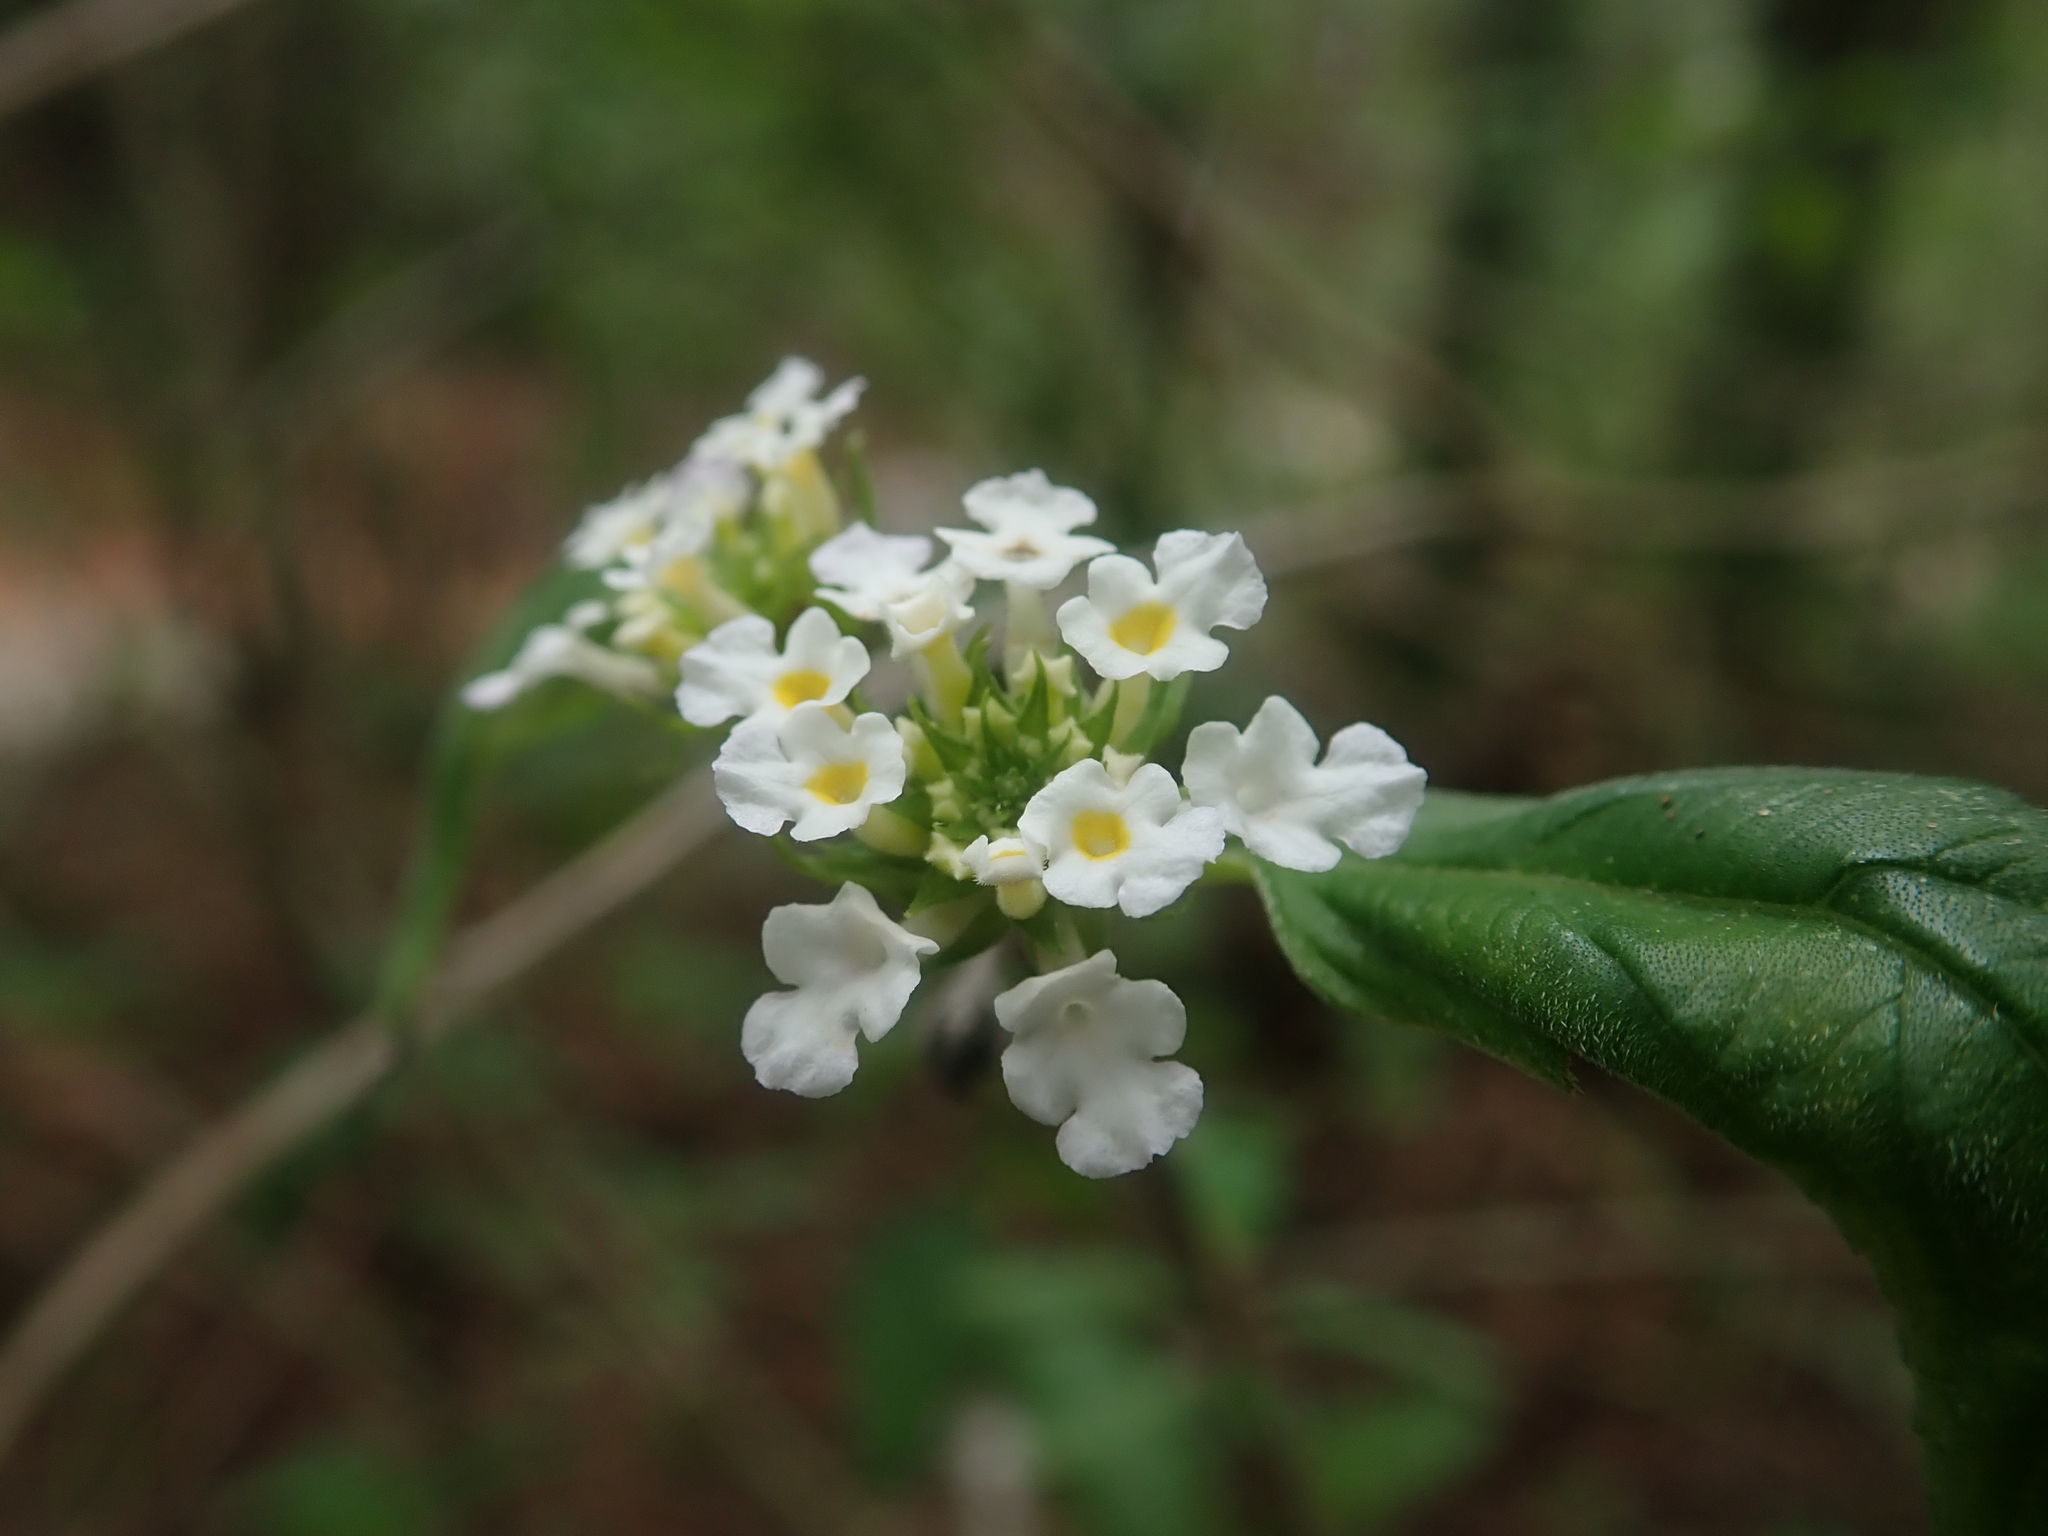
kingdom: Plantae
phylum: Tracheophyta
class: Magnoliopsida
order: Lamiales
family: Verbenaceae
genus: Lantana
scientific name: Lantana canescens
